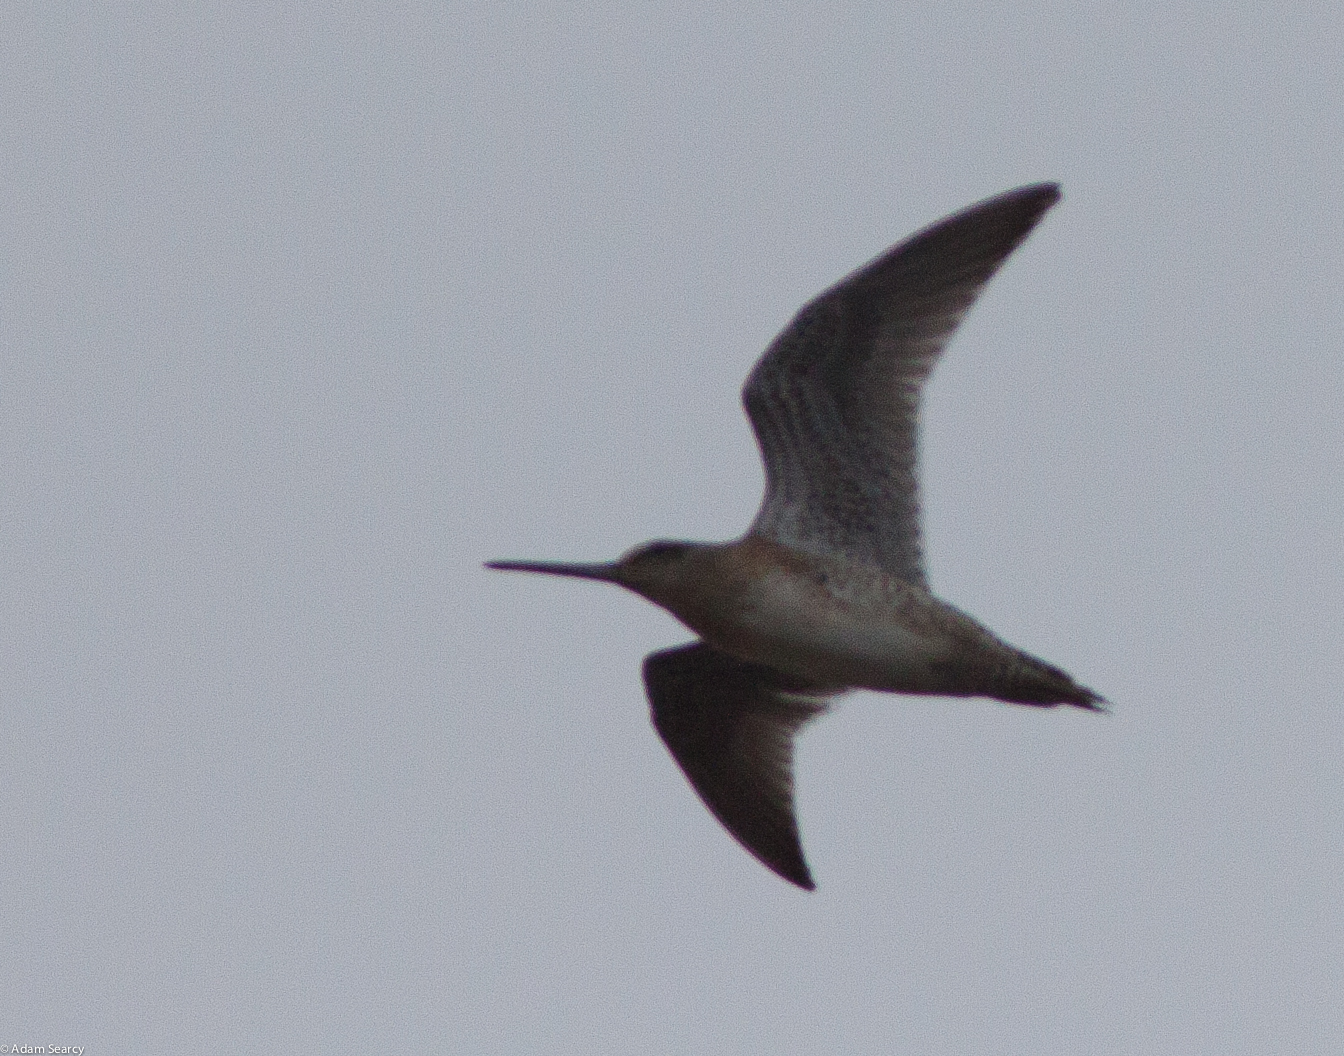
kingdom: Animalia
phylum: Chordata
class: Aves
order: Charadriiformes
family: Scolopacidae
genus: Limnodromus
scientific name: Limnodromus griseus
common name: Short-billed dowitcher
